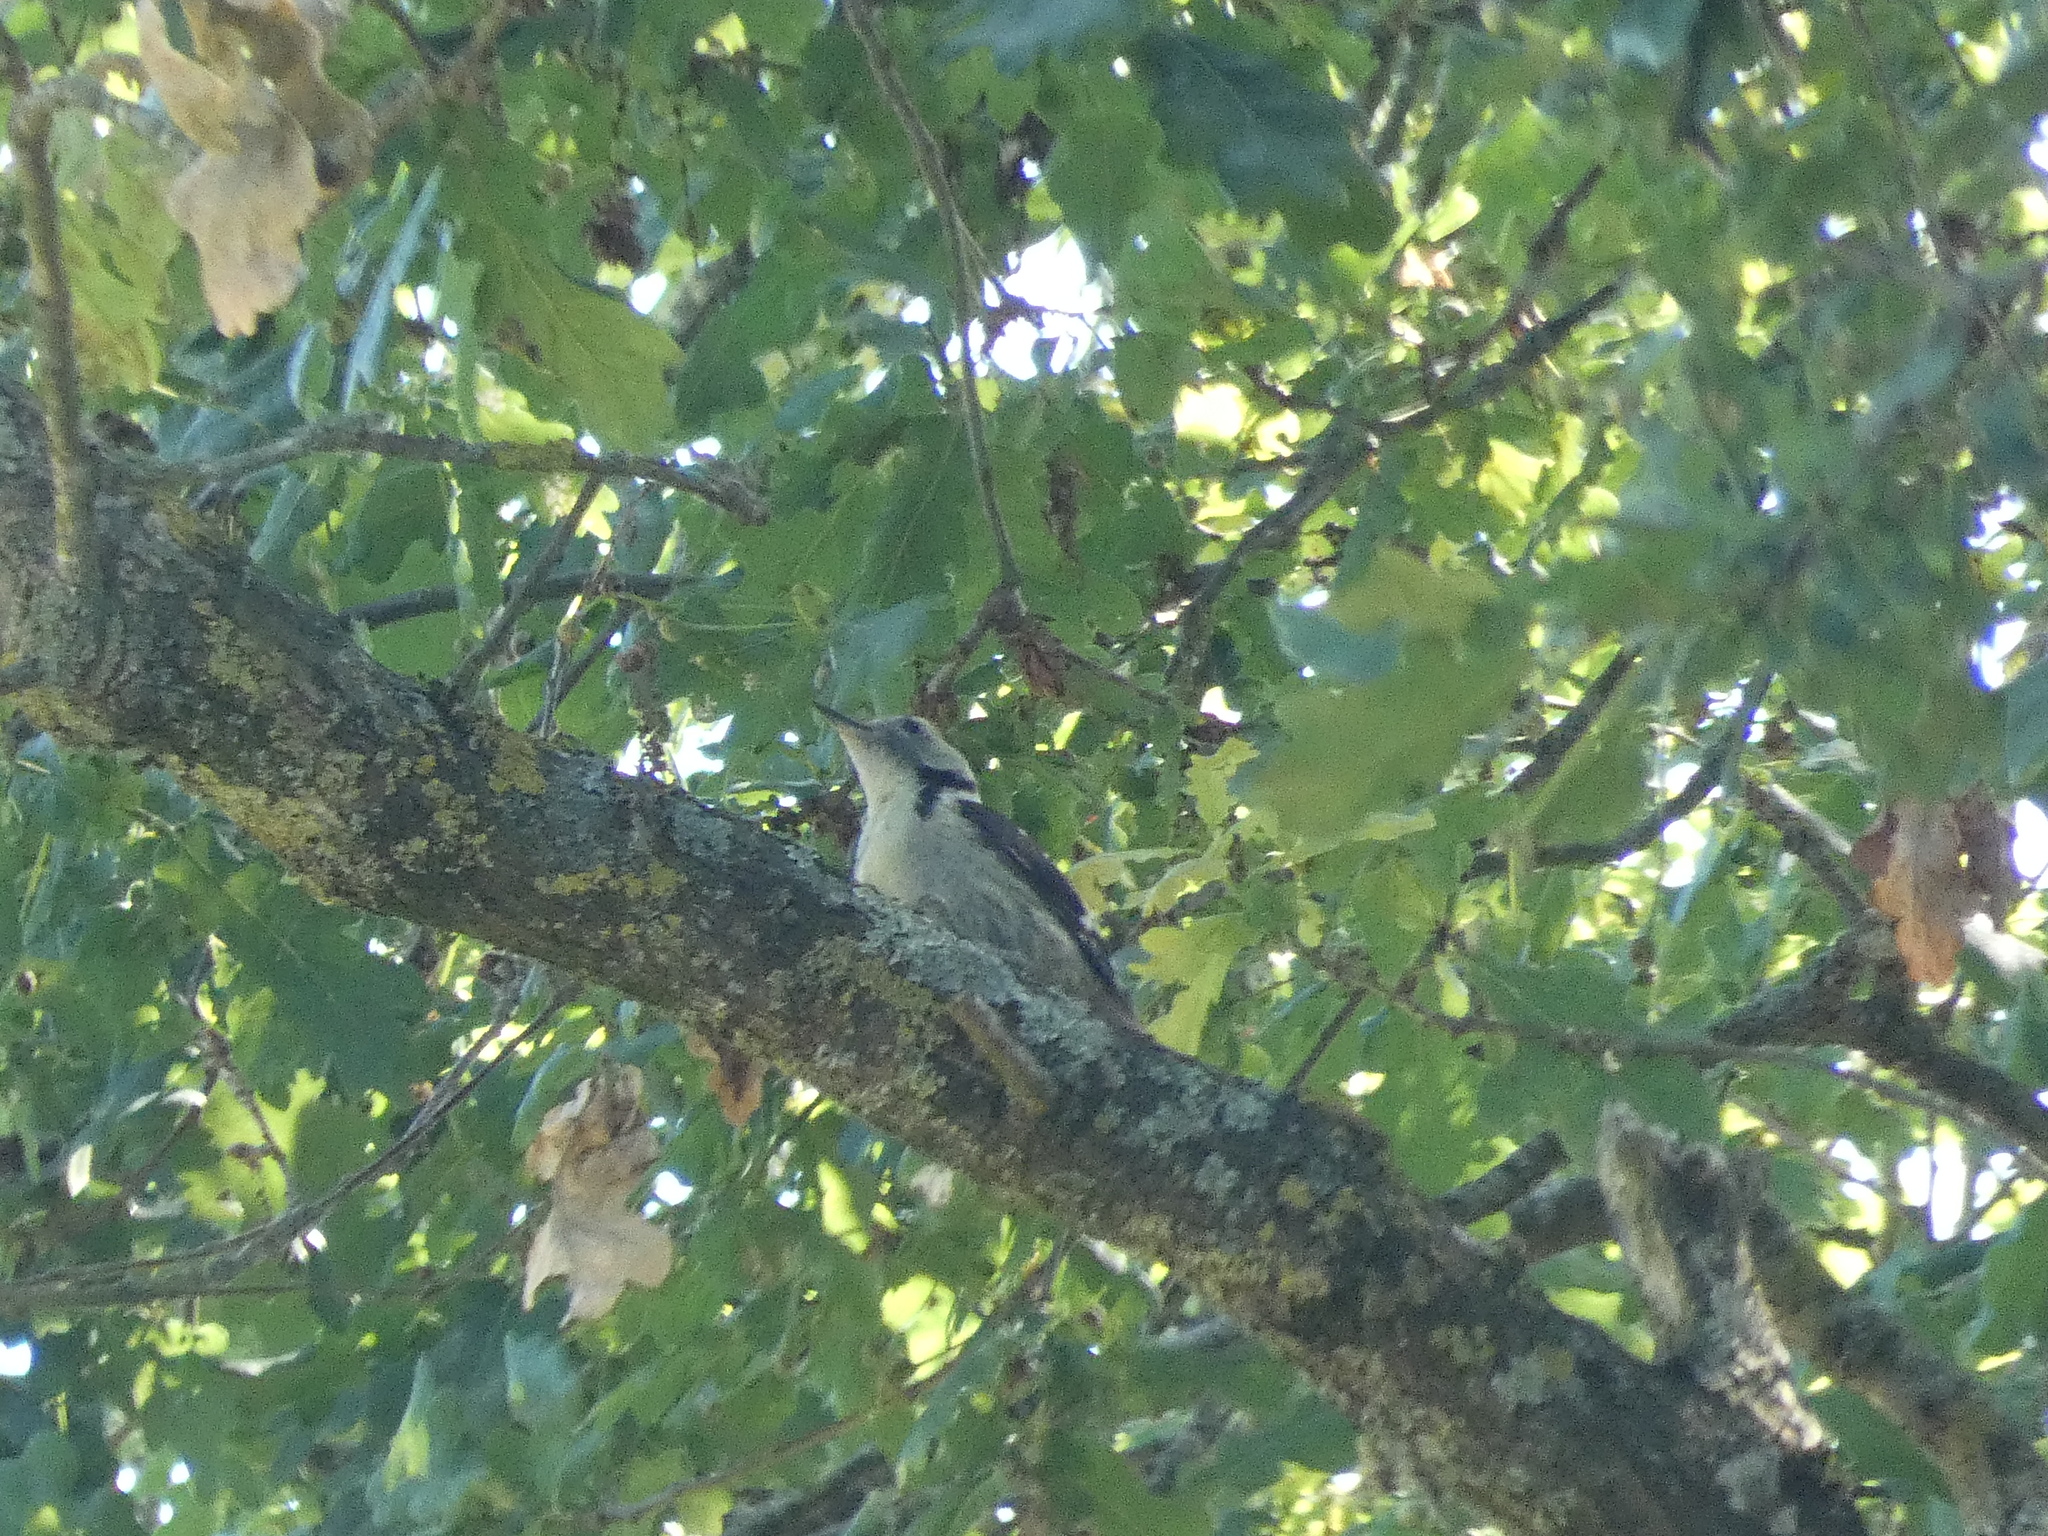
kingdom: Animalia
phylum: Chordata
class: Aves
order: Piciformes
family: Picidae
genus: Dendrocoptes
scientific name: Dendrocoptes medius
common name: Middle spotted woodpecker
